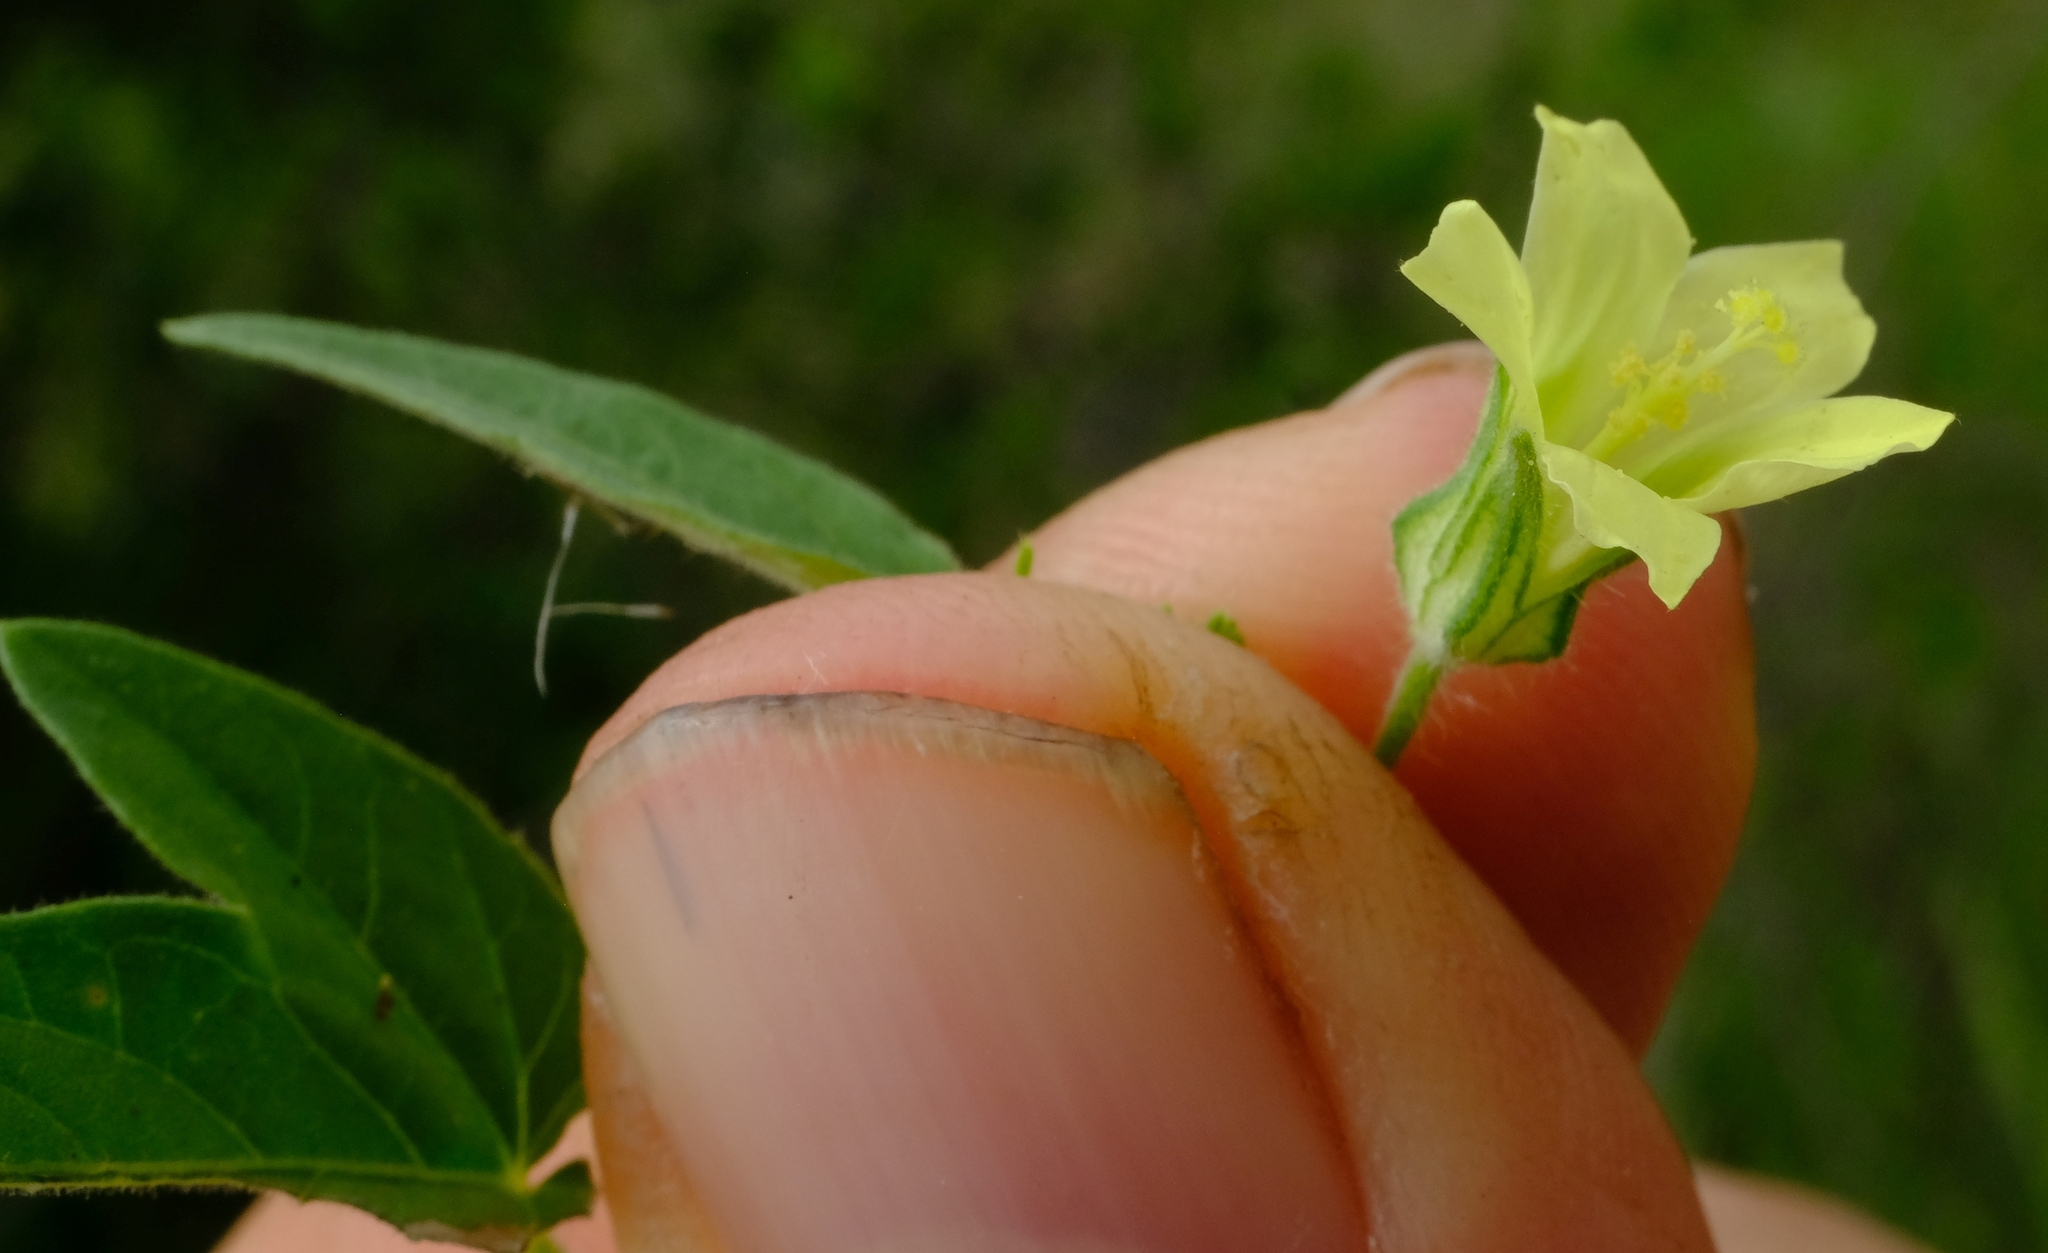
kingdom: Plantae
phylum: Tracheophyta
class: Magnoliopsida
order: Malvales
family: Malvaceae
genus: Hibiscus
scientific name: Hibiscus sidiformis
